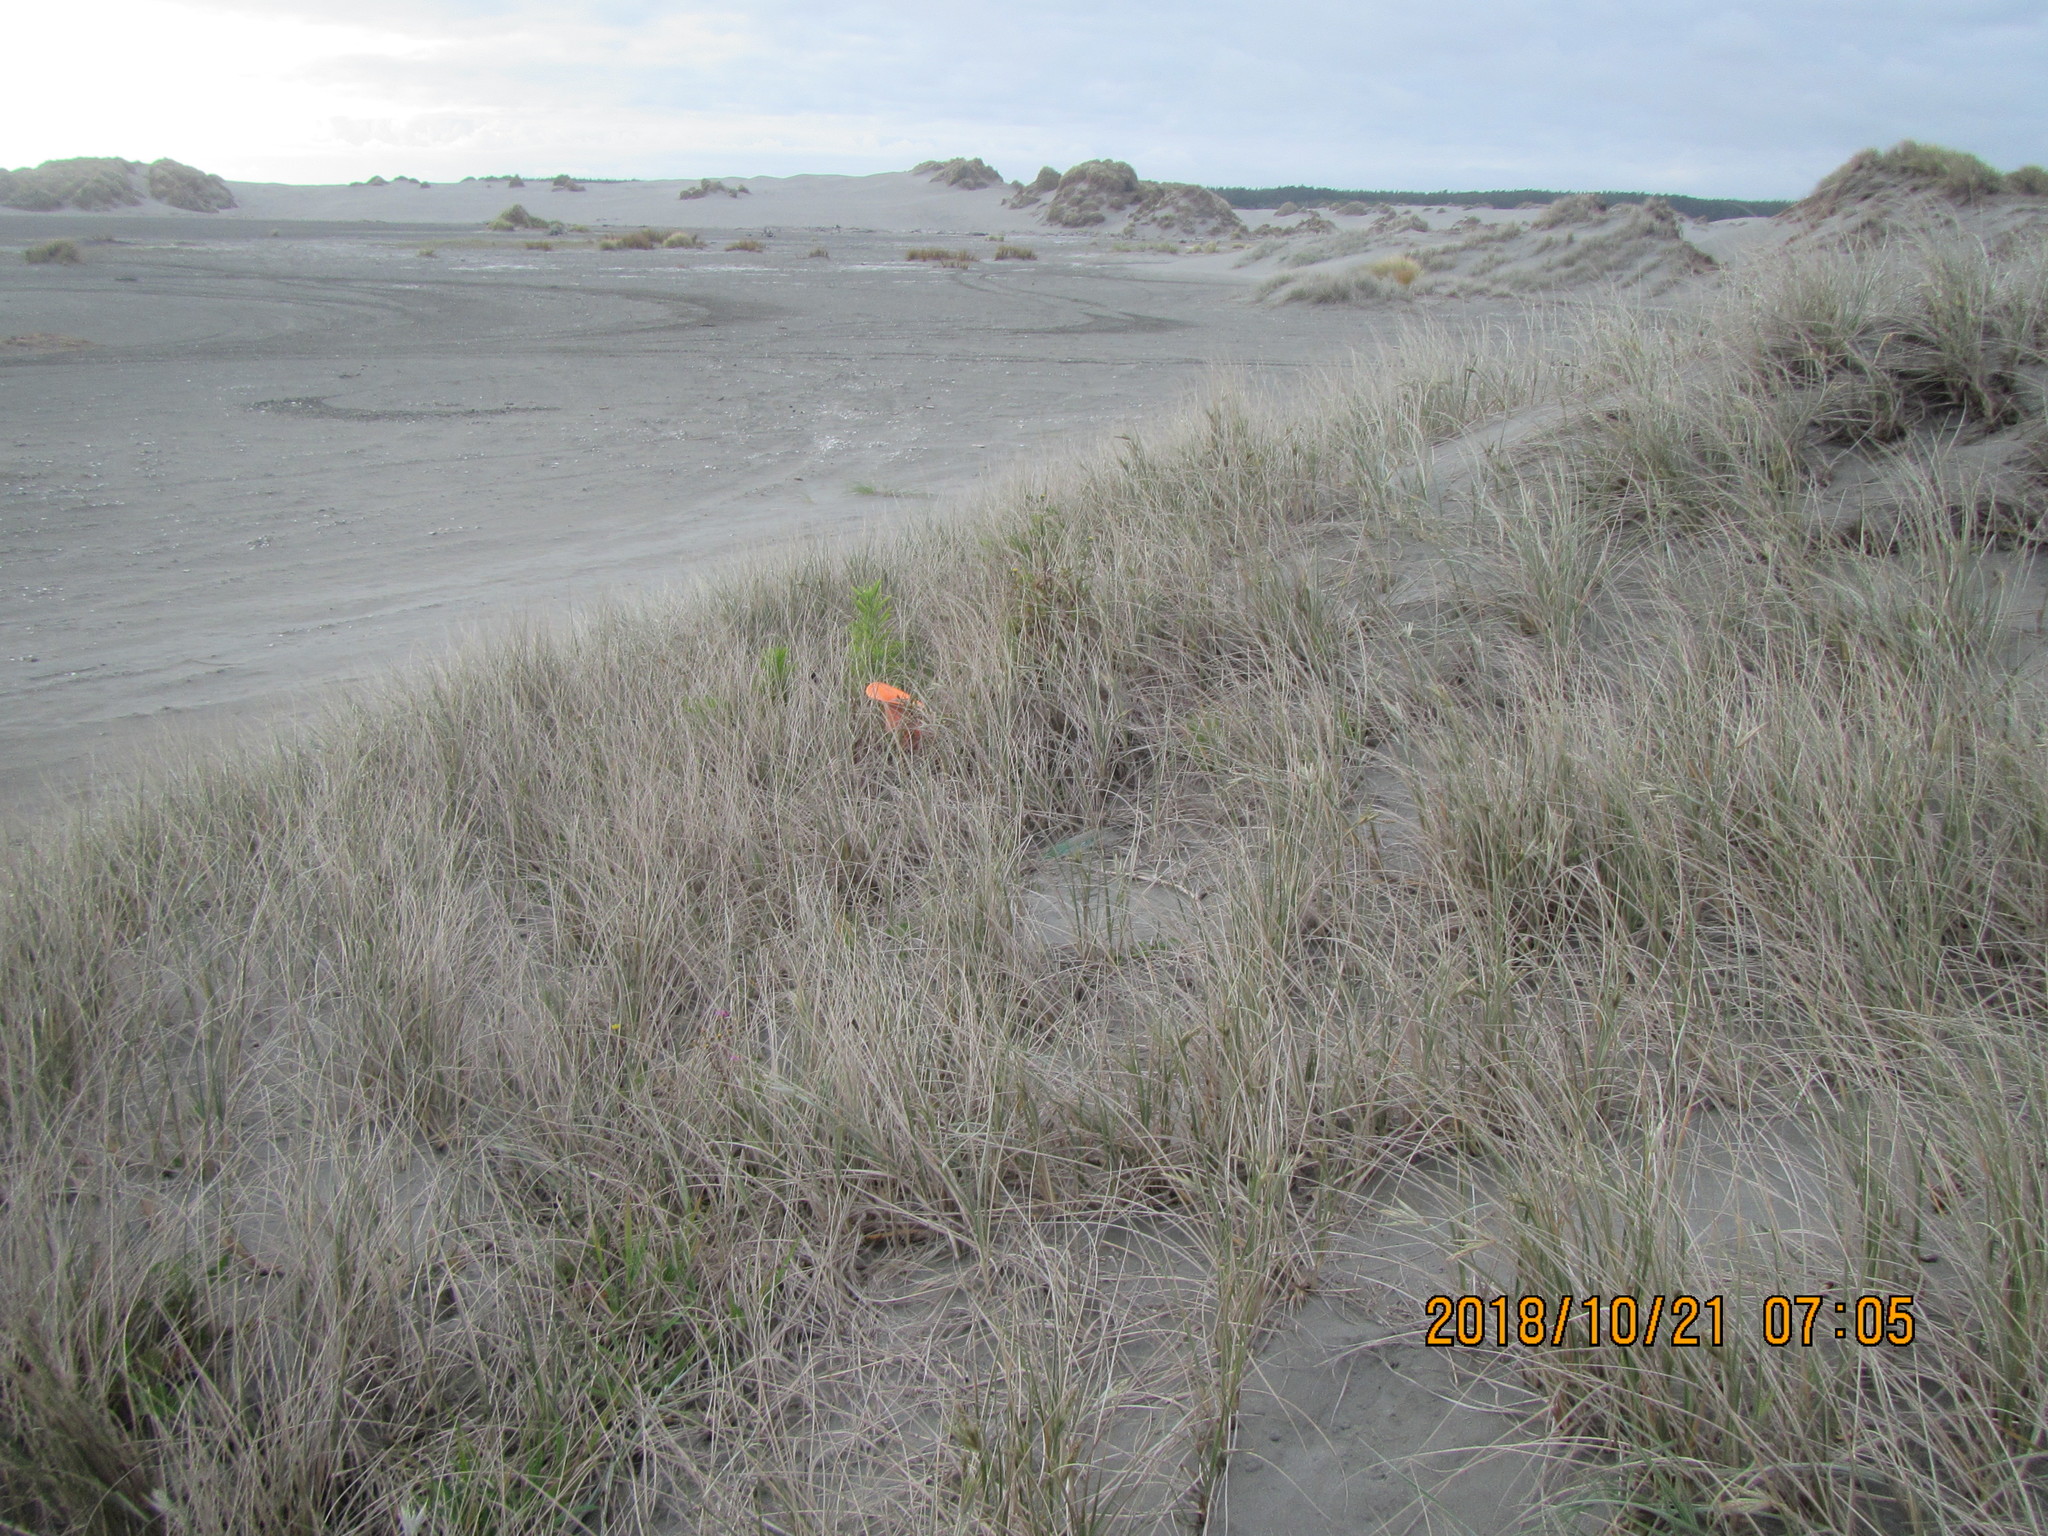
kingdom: Plantae
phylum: Tracheophyta
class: Magnoliopsida
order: Asterales
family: Asteraceae
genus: Erigeron
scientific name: Erigeron sumatrensis
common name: Daisy
